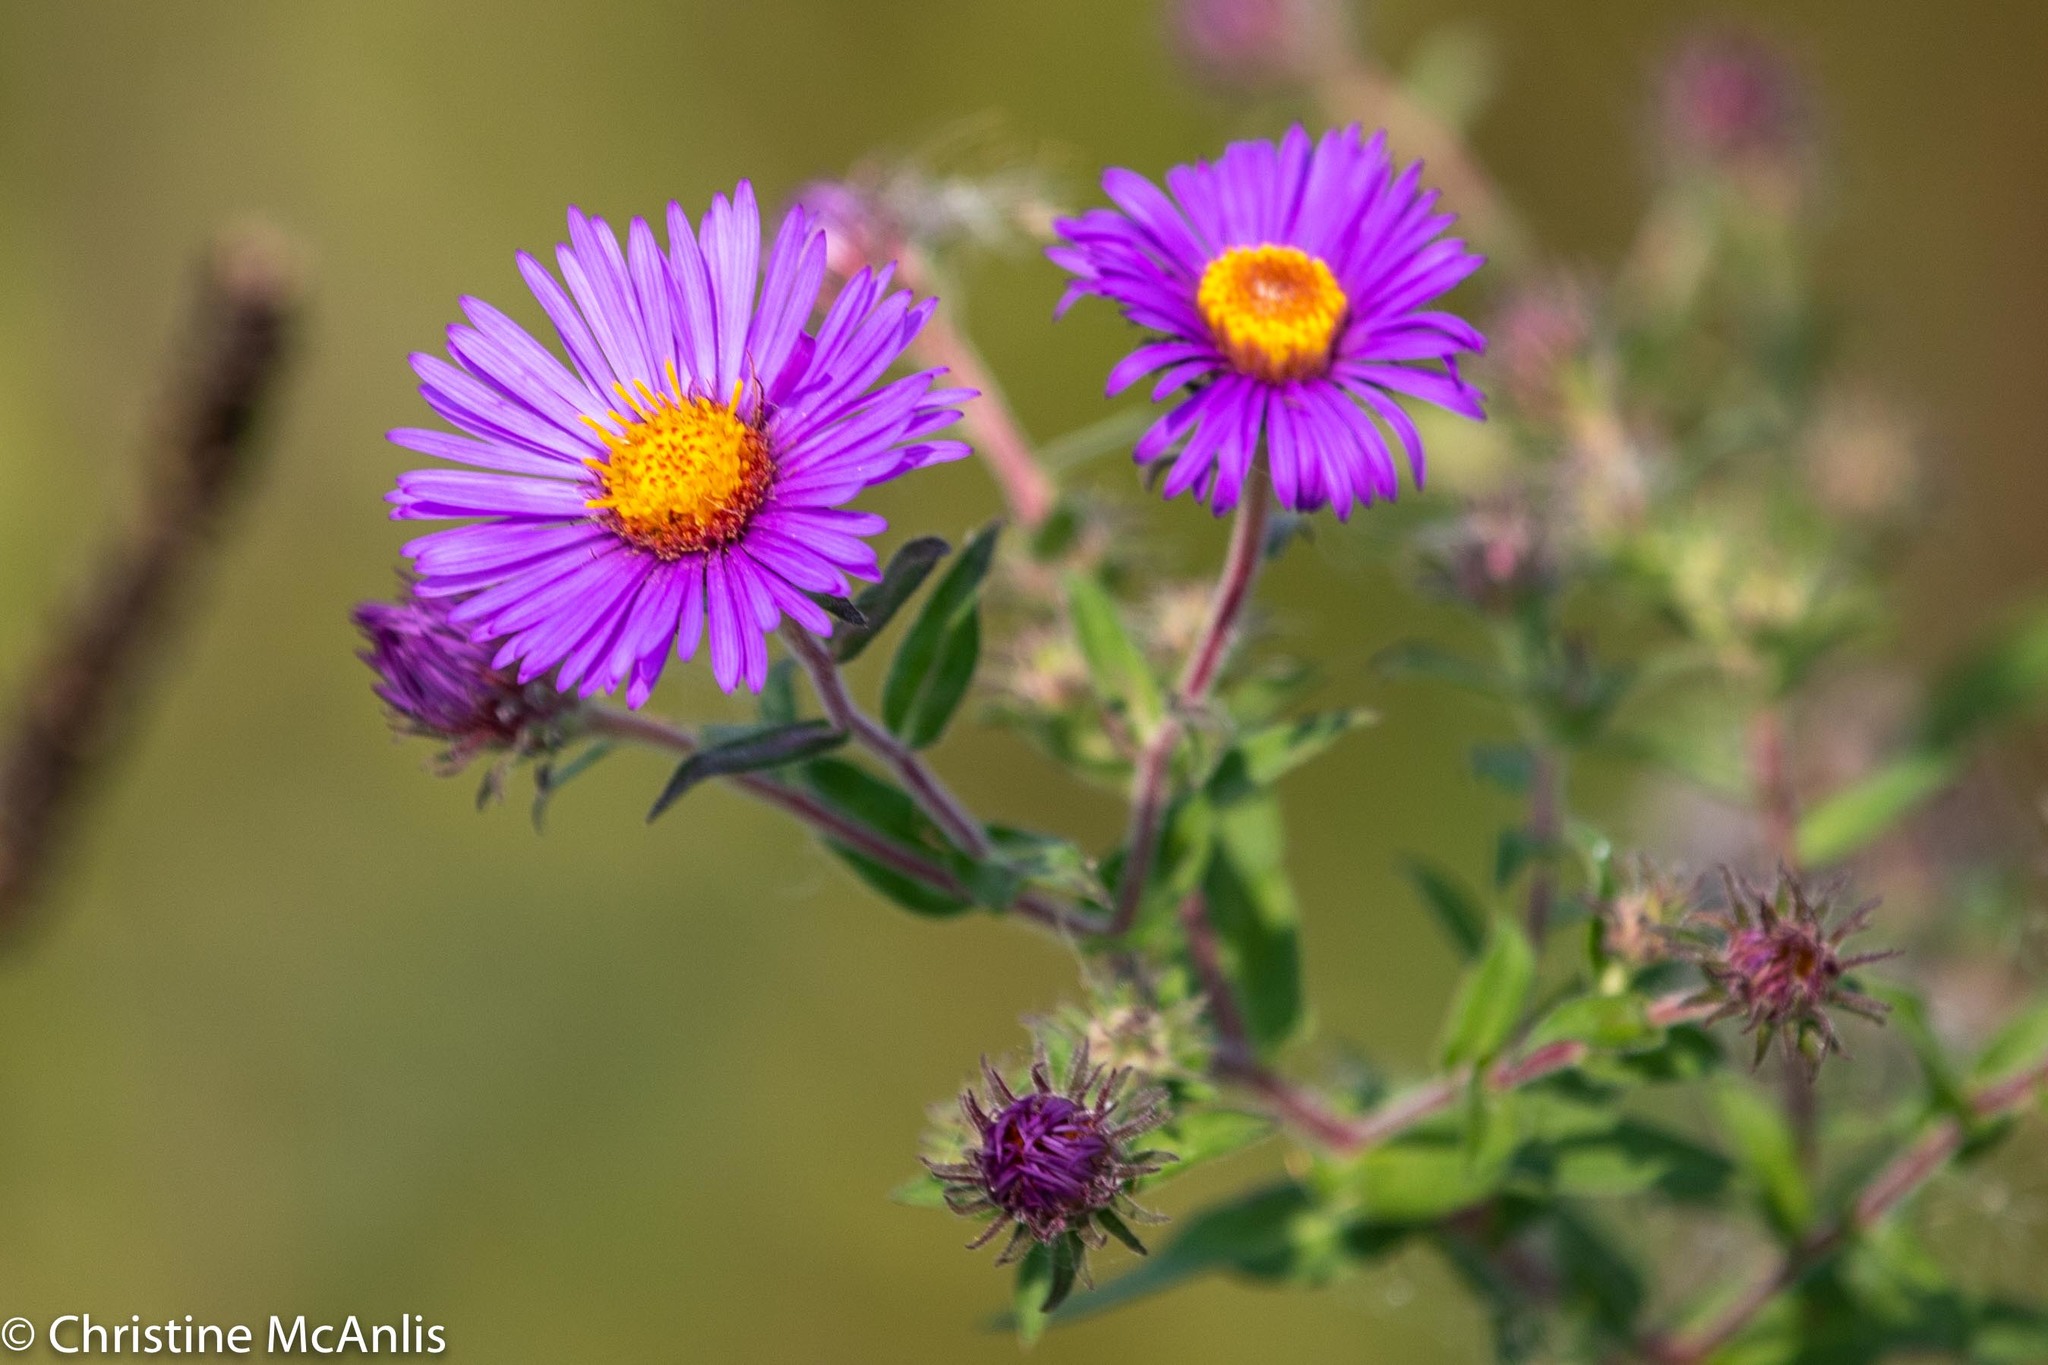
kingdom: Plantae
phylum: Tracheophyta
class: Magnoliopsida
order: Asterales
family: Asteraceae
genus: Symphyotrichum
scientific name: Symphyotrichum novae-angliae
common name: Michaelmas daisy
